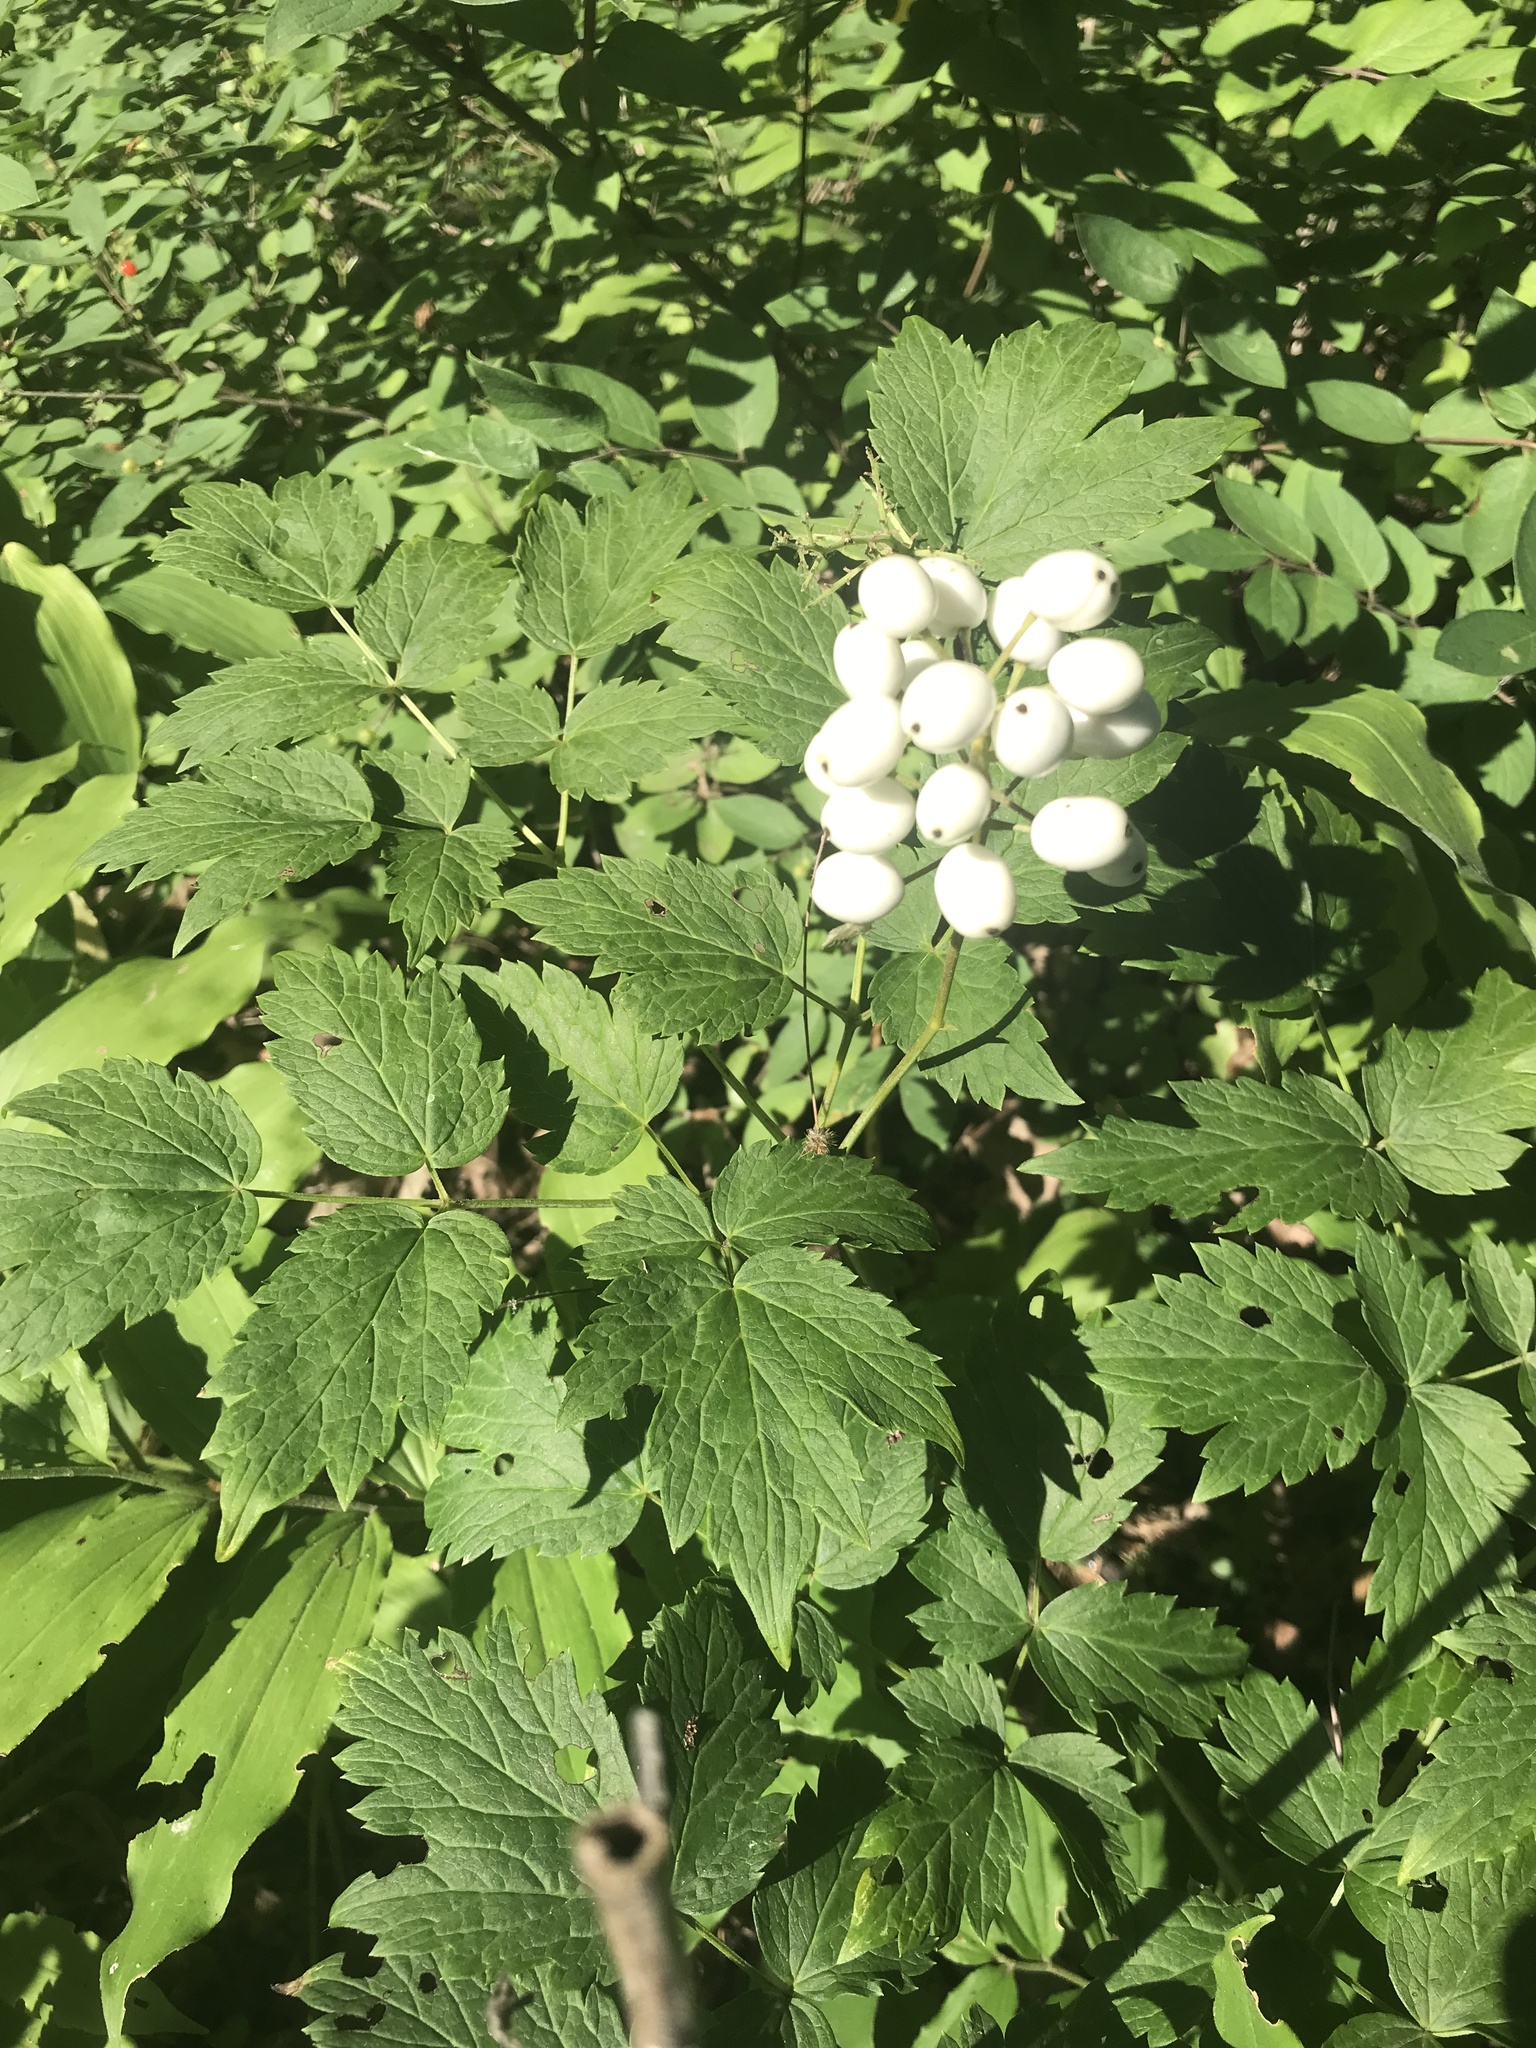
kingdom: Plantae
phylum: Tracheophyta
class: Magnoliopsida
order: Ranunculales
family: Ranunculaceae
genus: Actaea
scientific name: Actaea rubra
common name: Red baneberry
